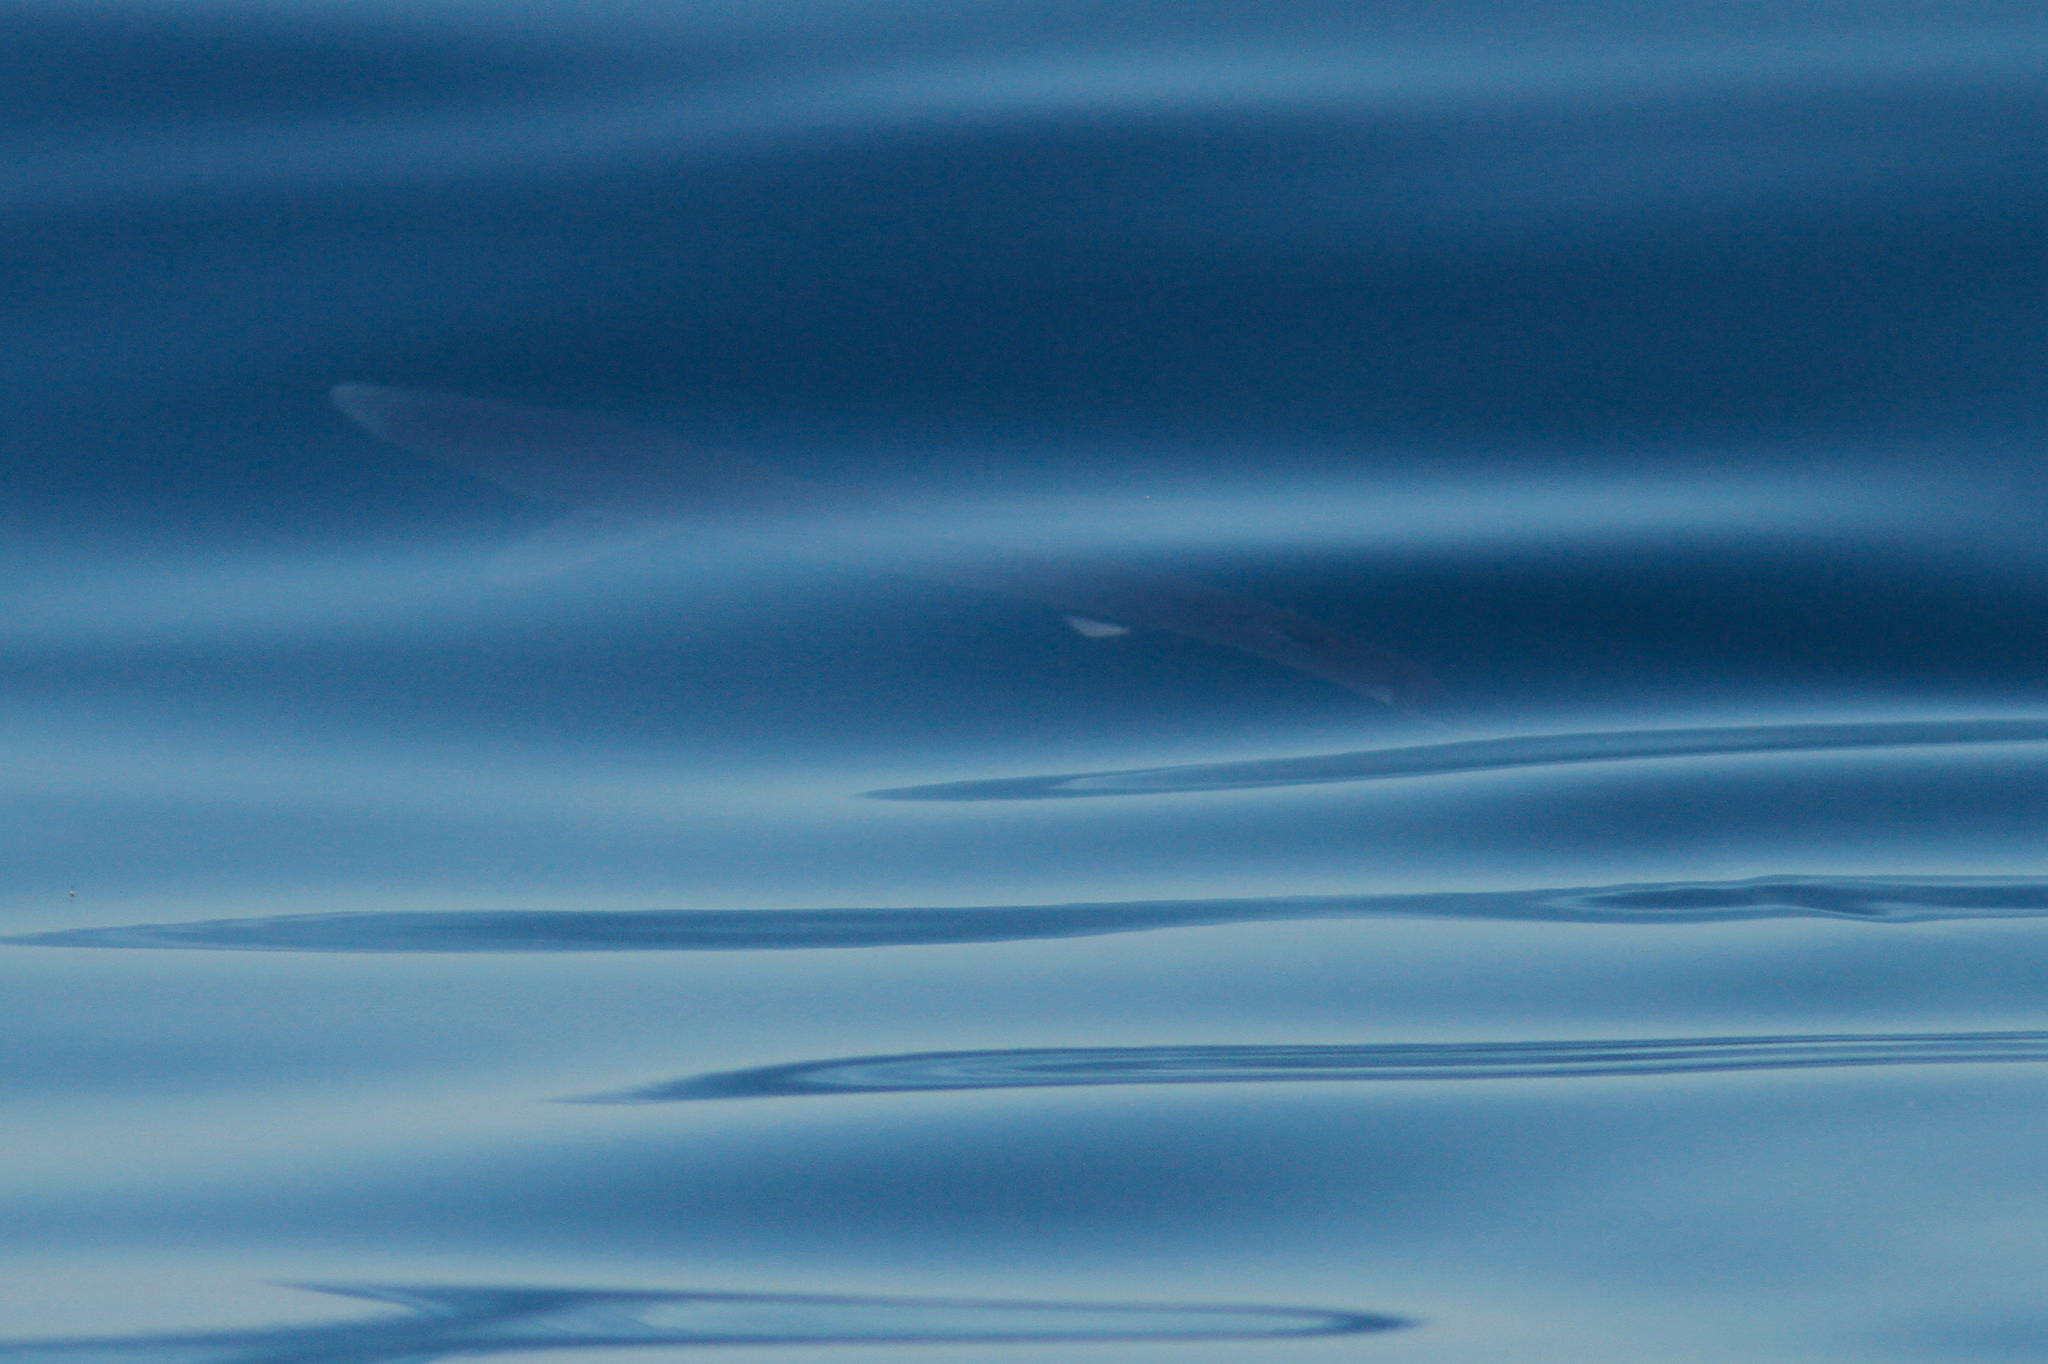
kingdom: Animalia
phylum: Chordata
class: Elasmobranchii
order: Carcharhiniformes
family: Carcharhinidae
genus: Prionace
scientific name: Prionace glauca
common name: Blue shark
